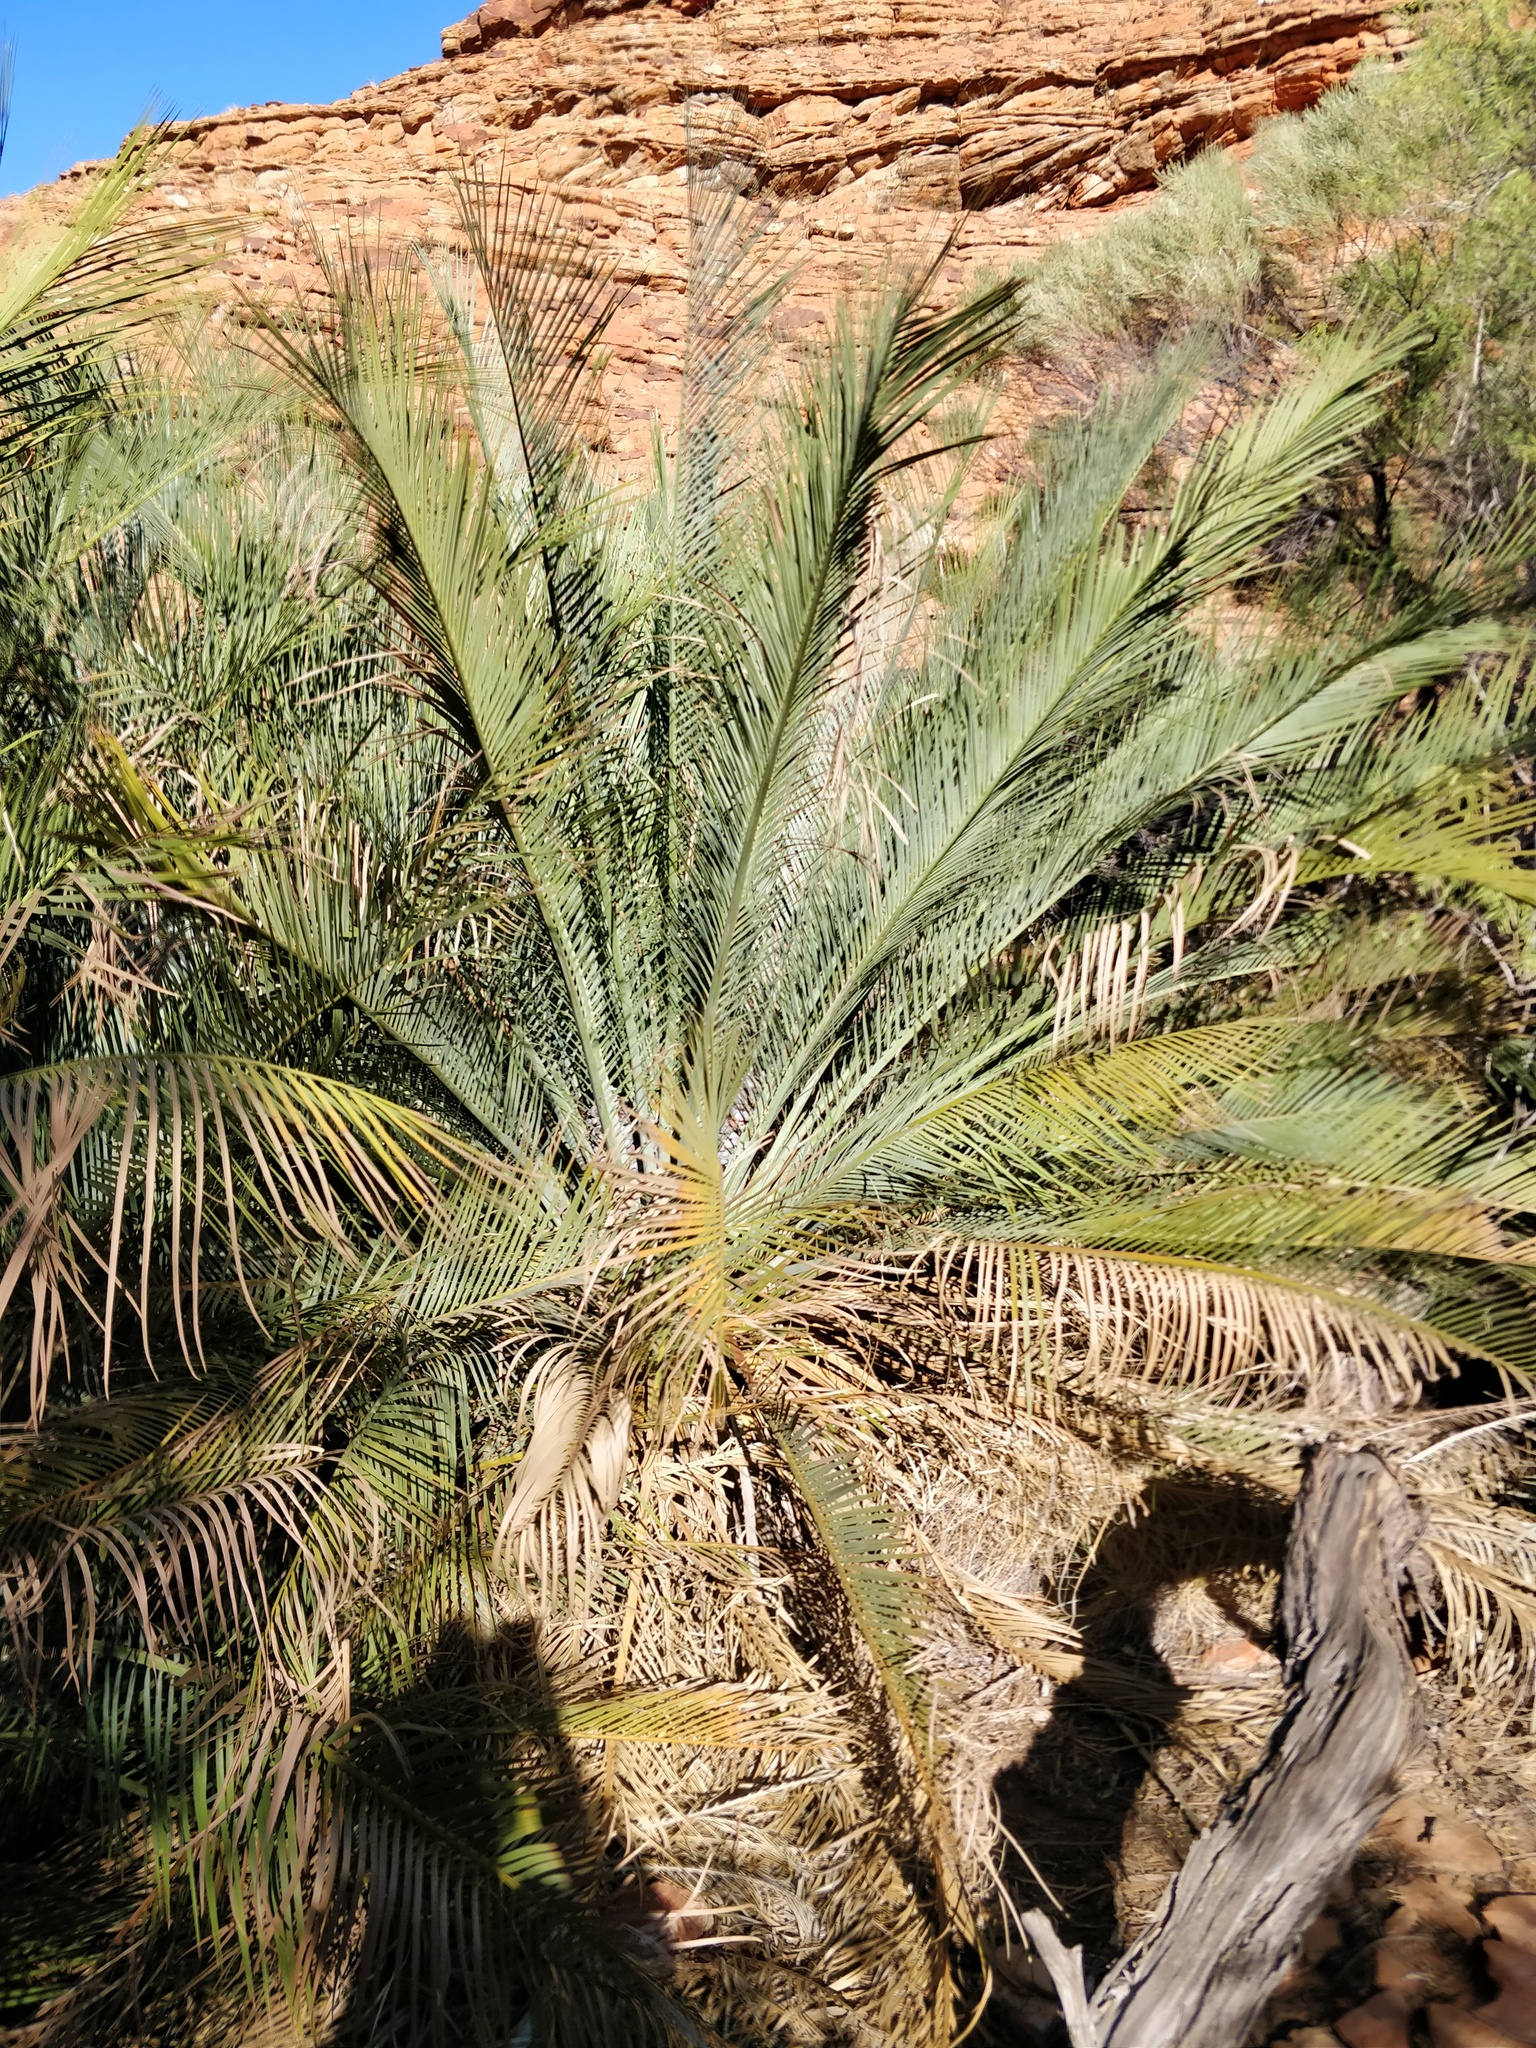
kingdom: Plantae
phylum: Tracheophyta
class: Cycadopsida
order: Cycadales
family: Zamiaceae
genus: Macrozamia
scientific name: Macrozamia macdonnellii
